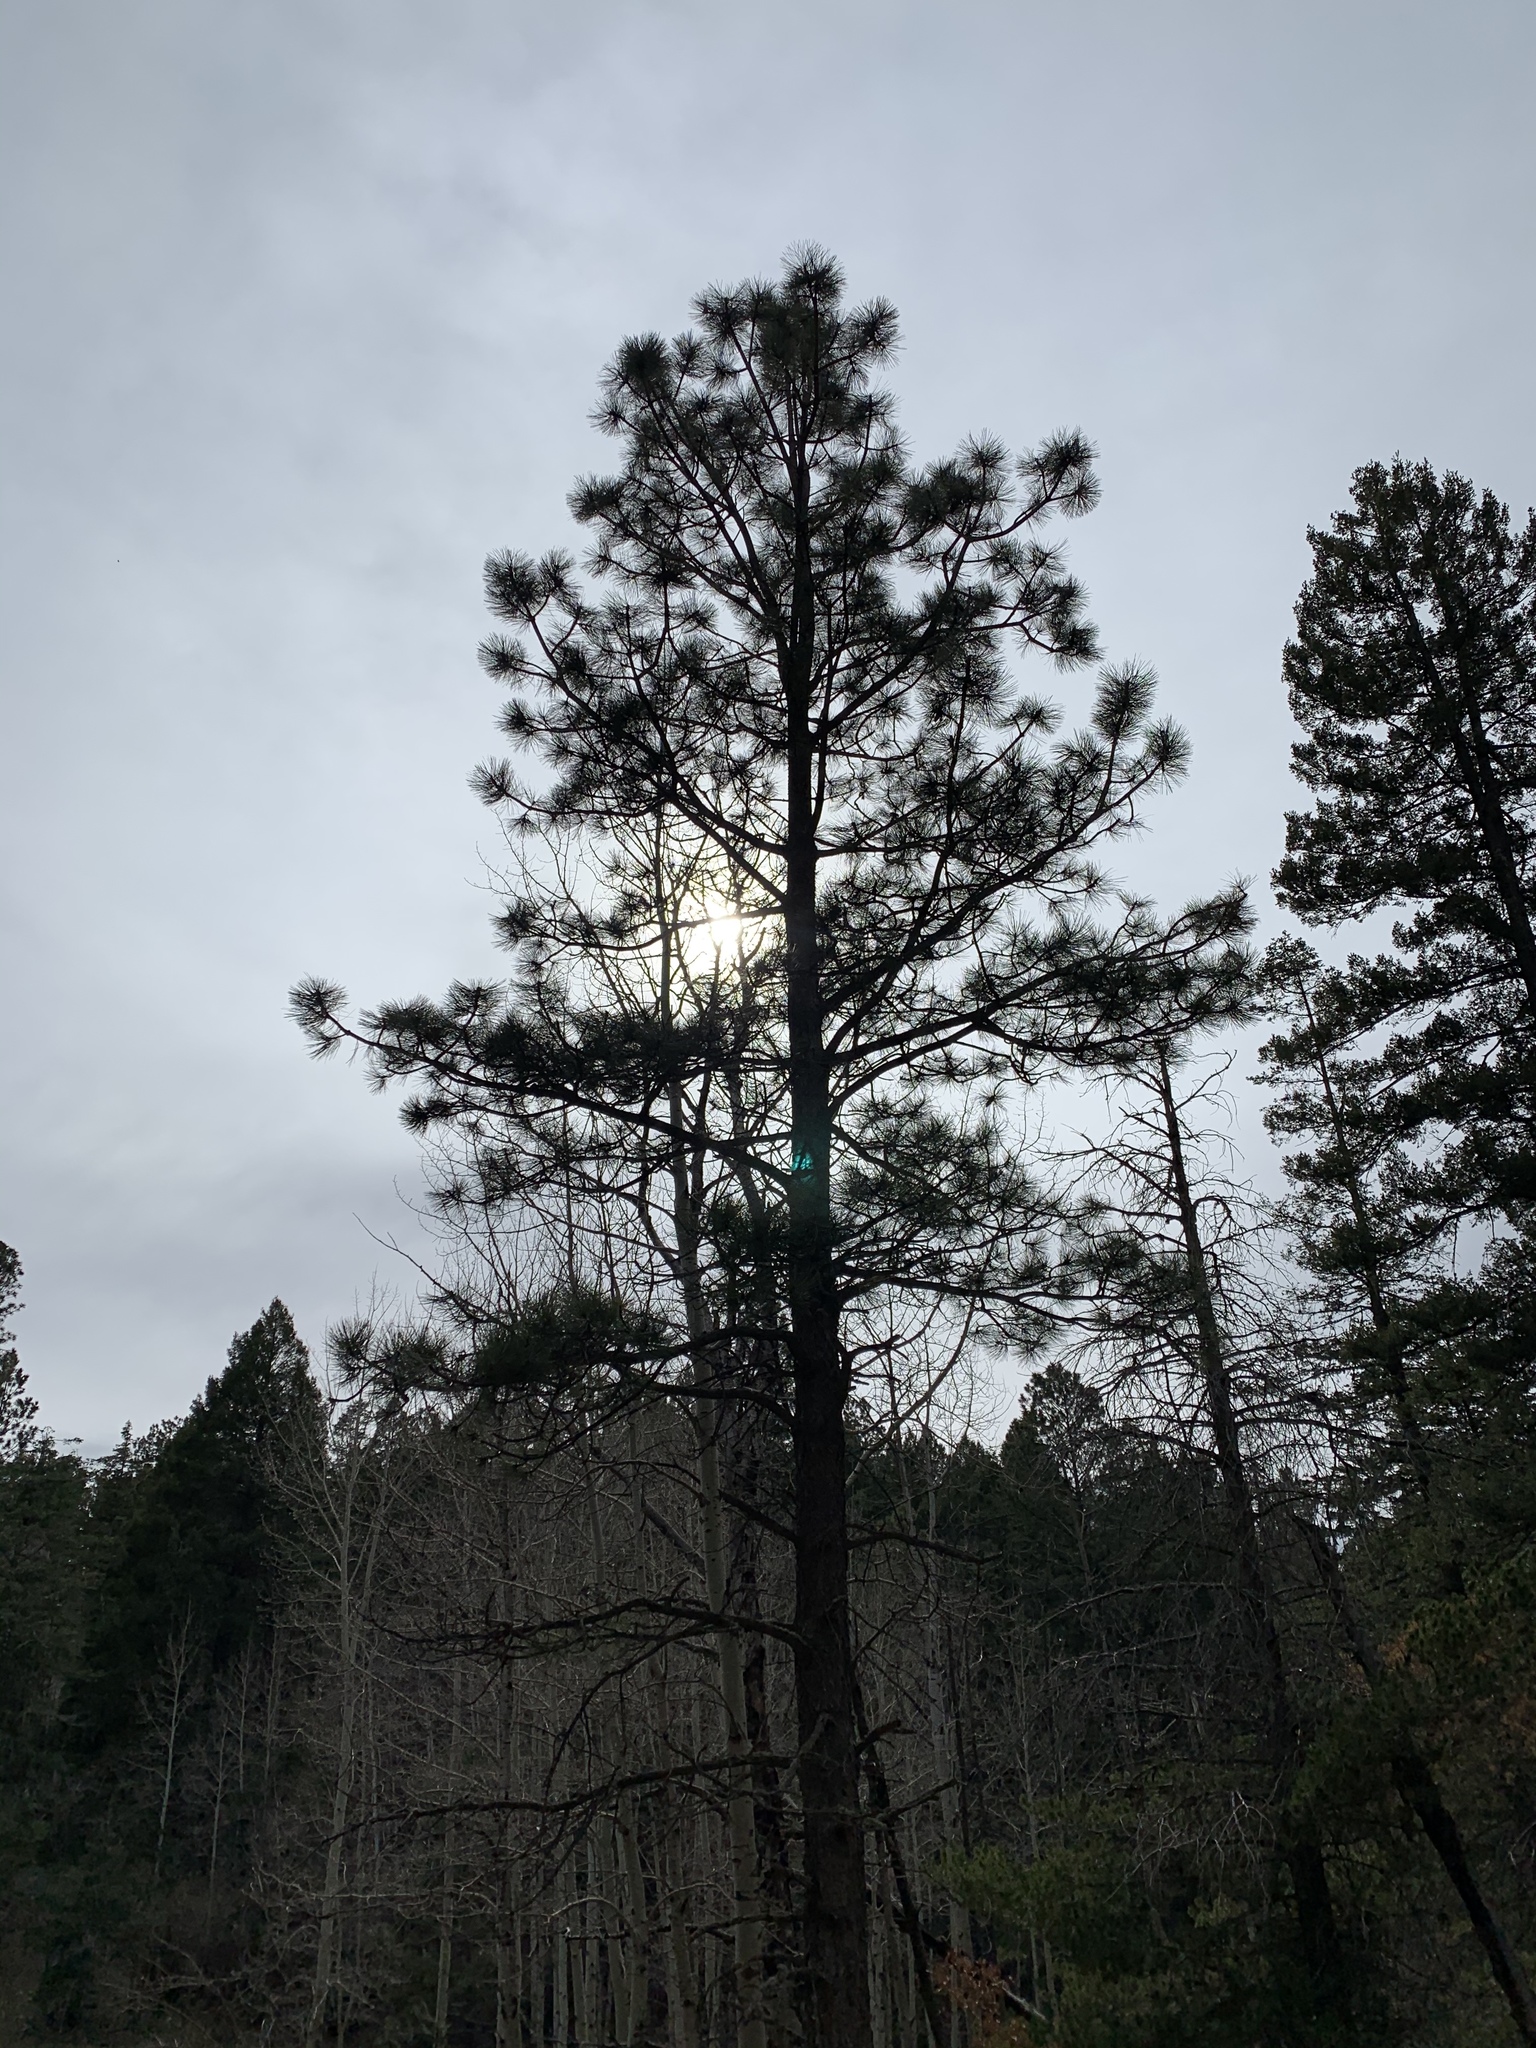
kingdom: Plantae
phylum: Tracheophyta
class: Pinopsida
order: Pinales
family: Pinaceae
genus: Pinus
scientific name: Pinus ponderosa
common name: Western yellow-pine
